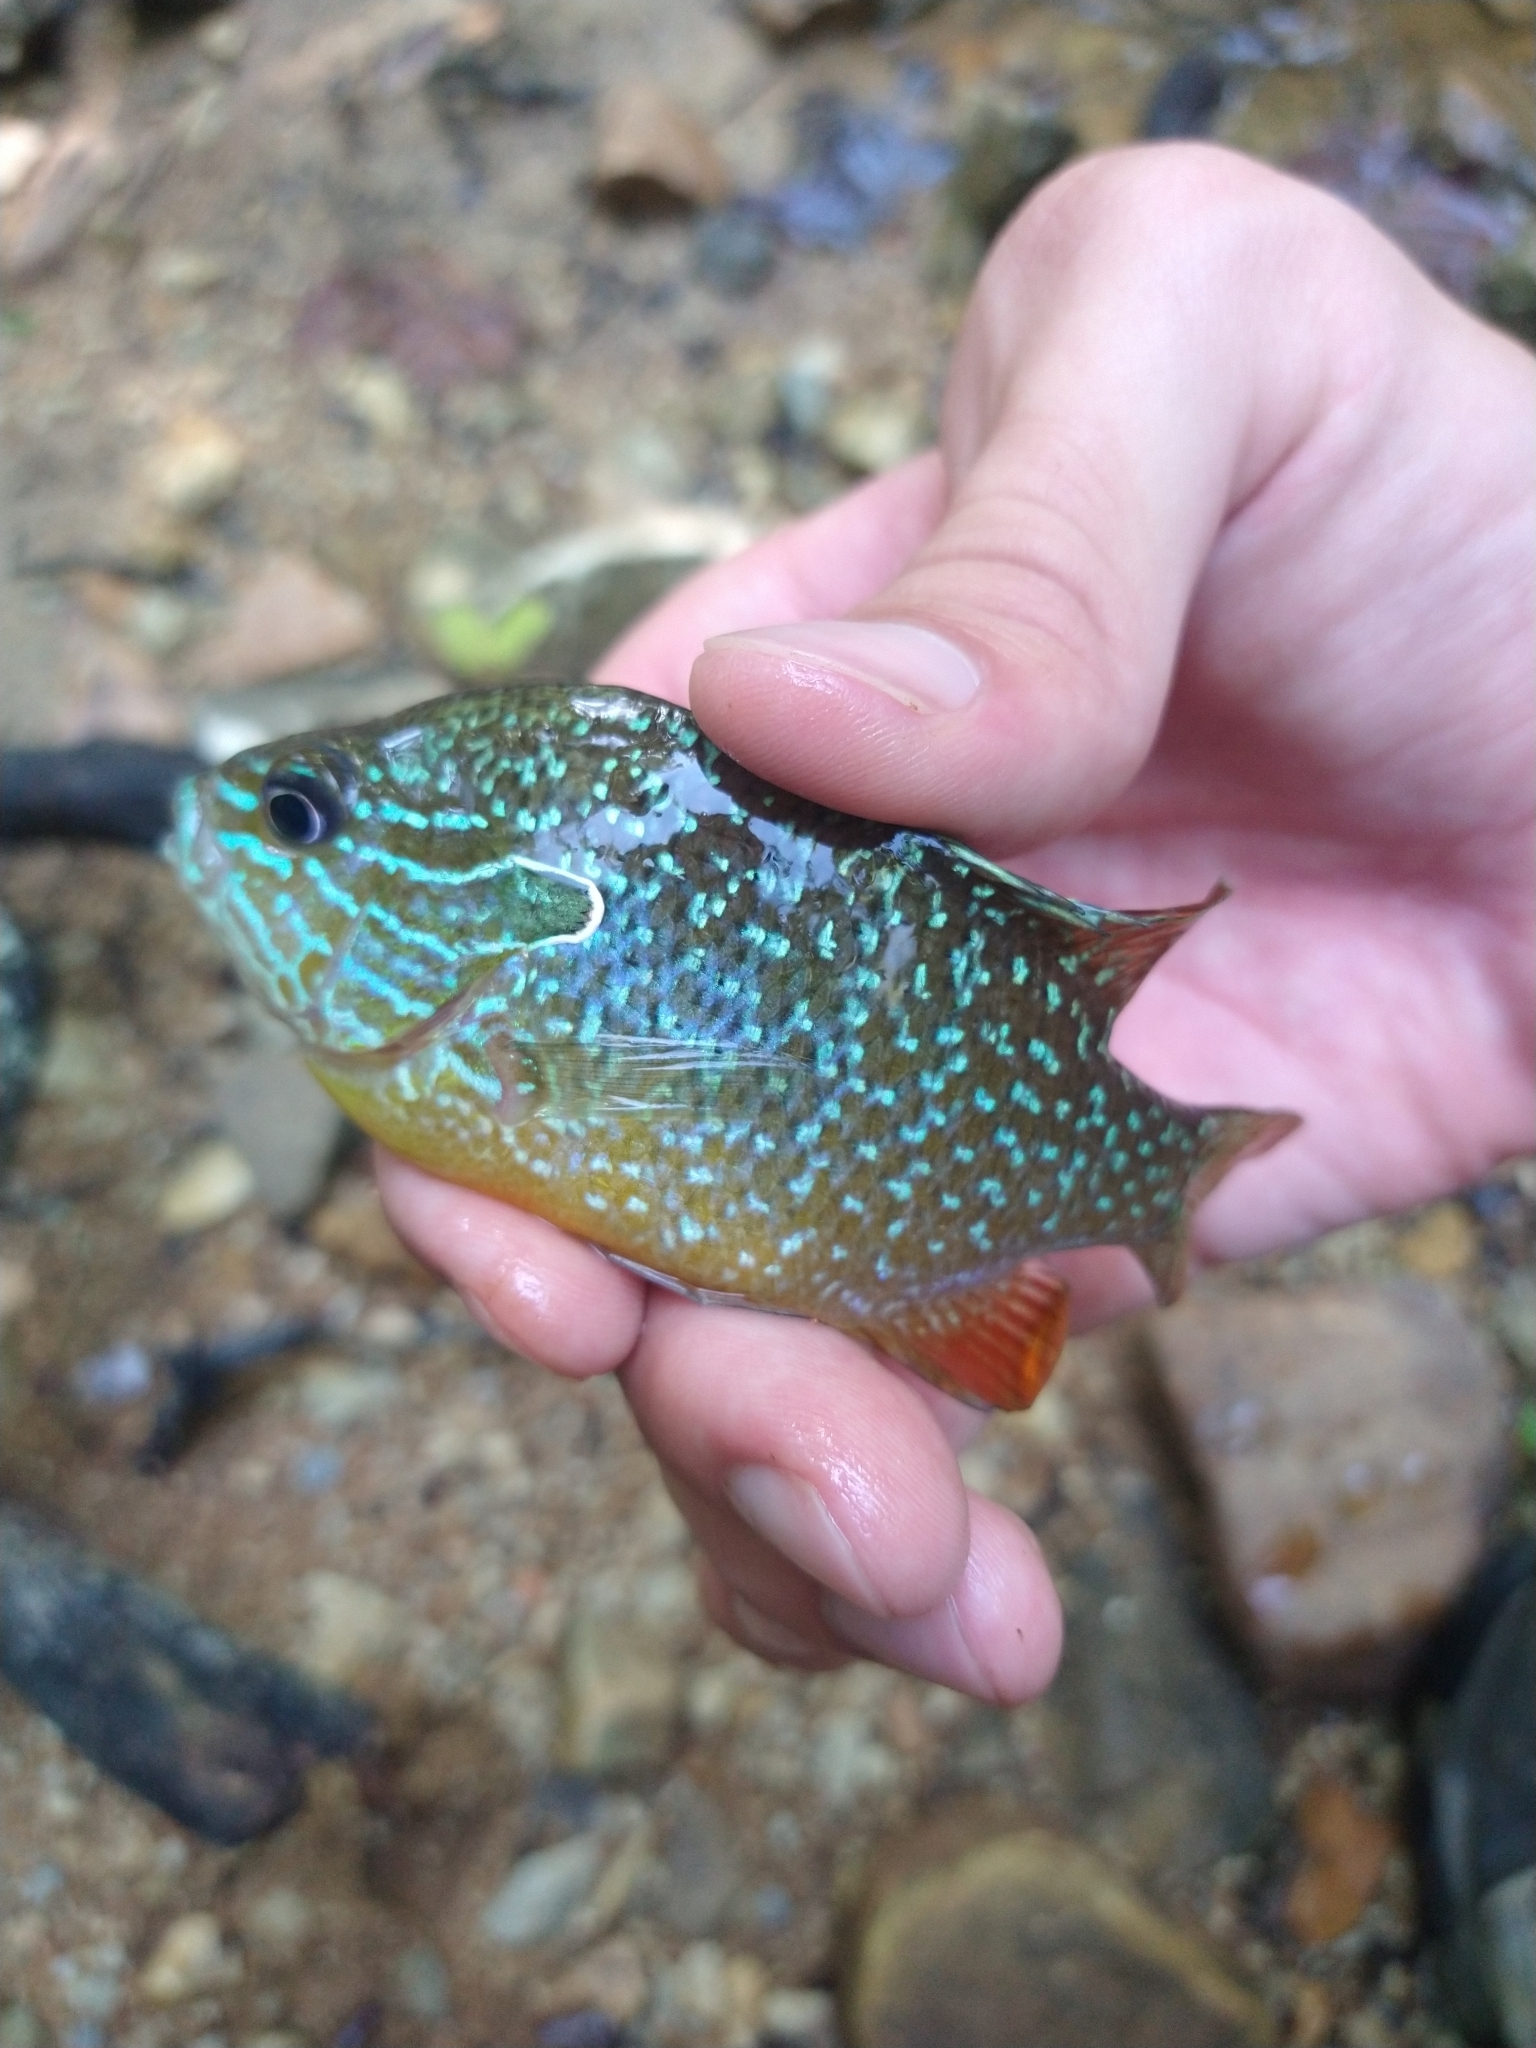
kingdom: Animalia
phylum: Chordata
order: Perciformes
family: Centrarchidae
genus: Lepomis
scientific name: Lepomis megalotis
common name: Longear sunfish
